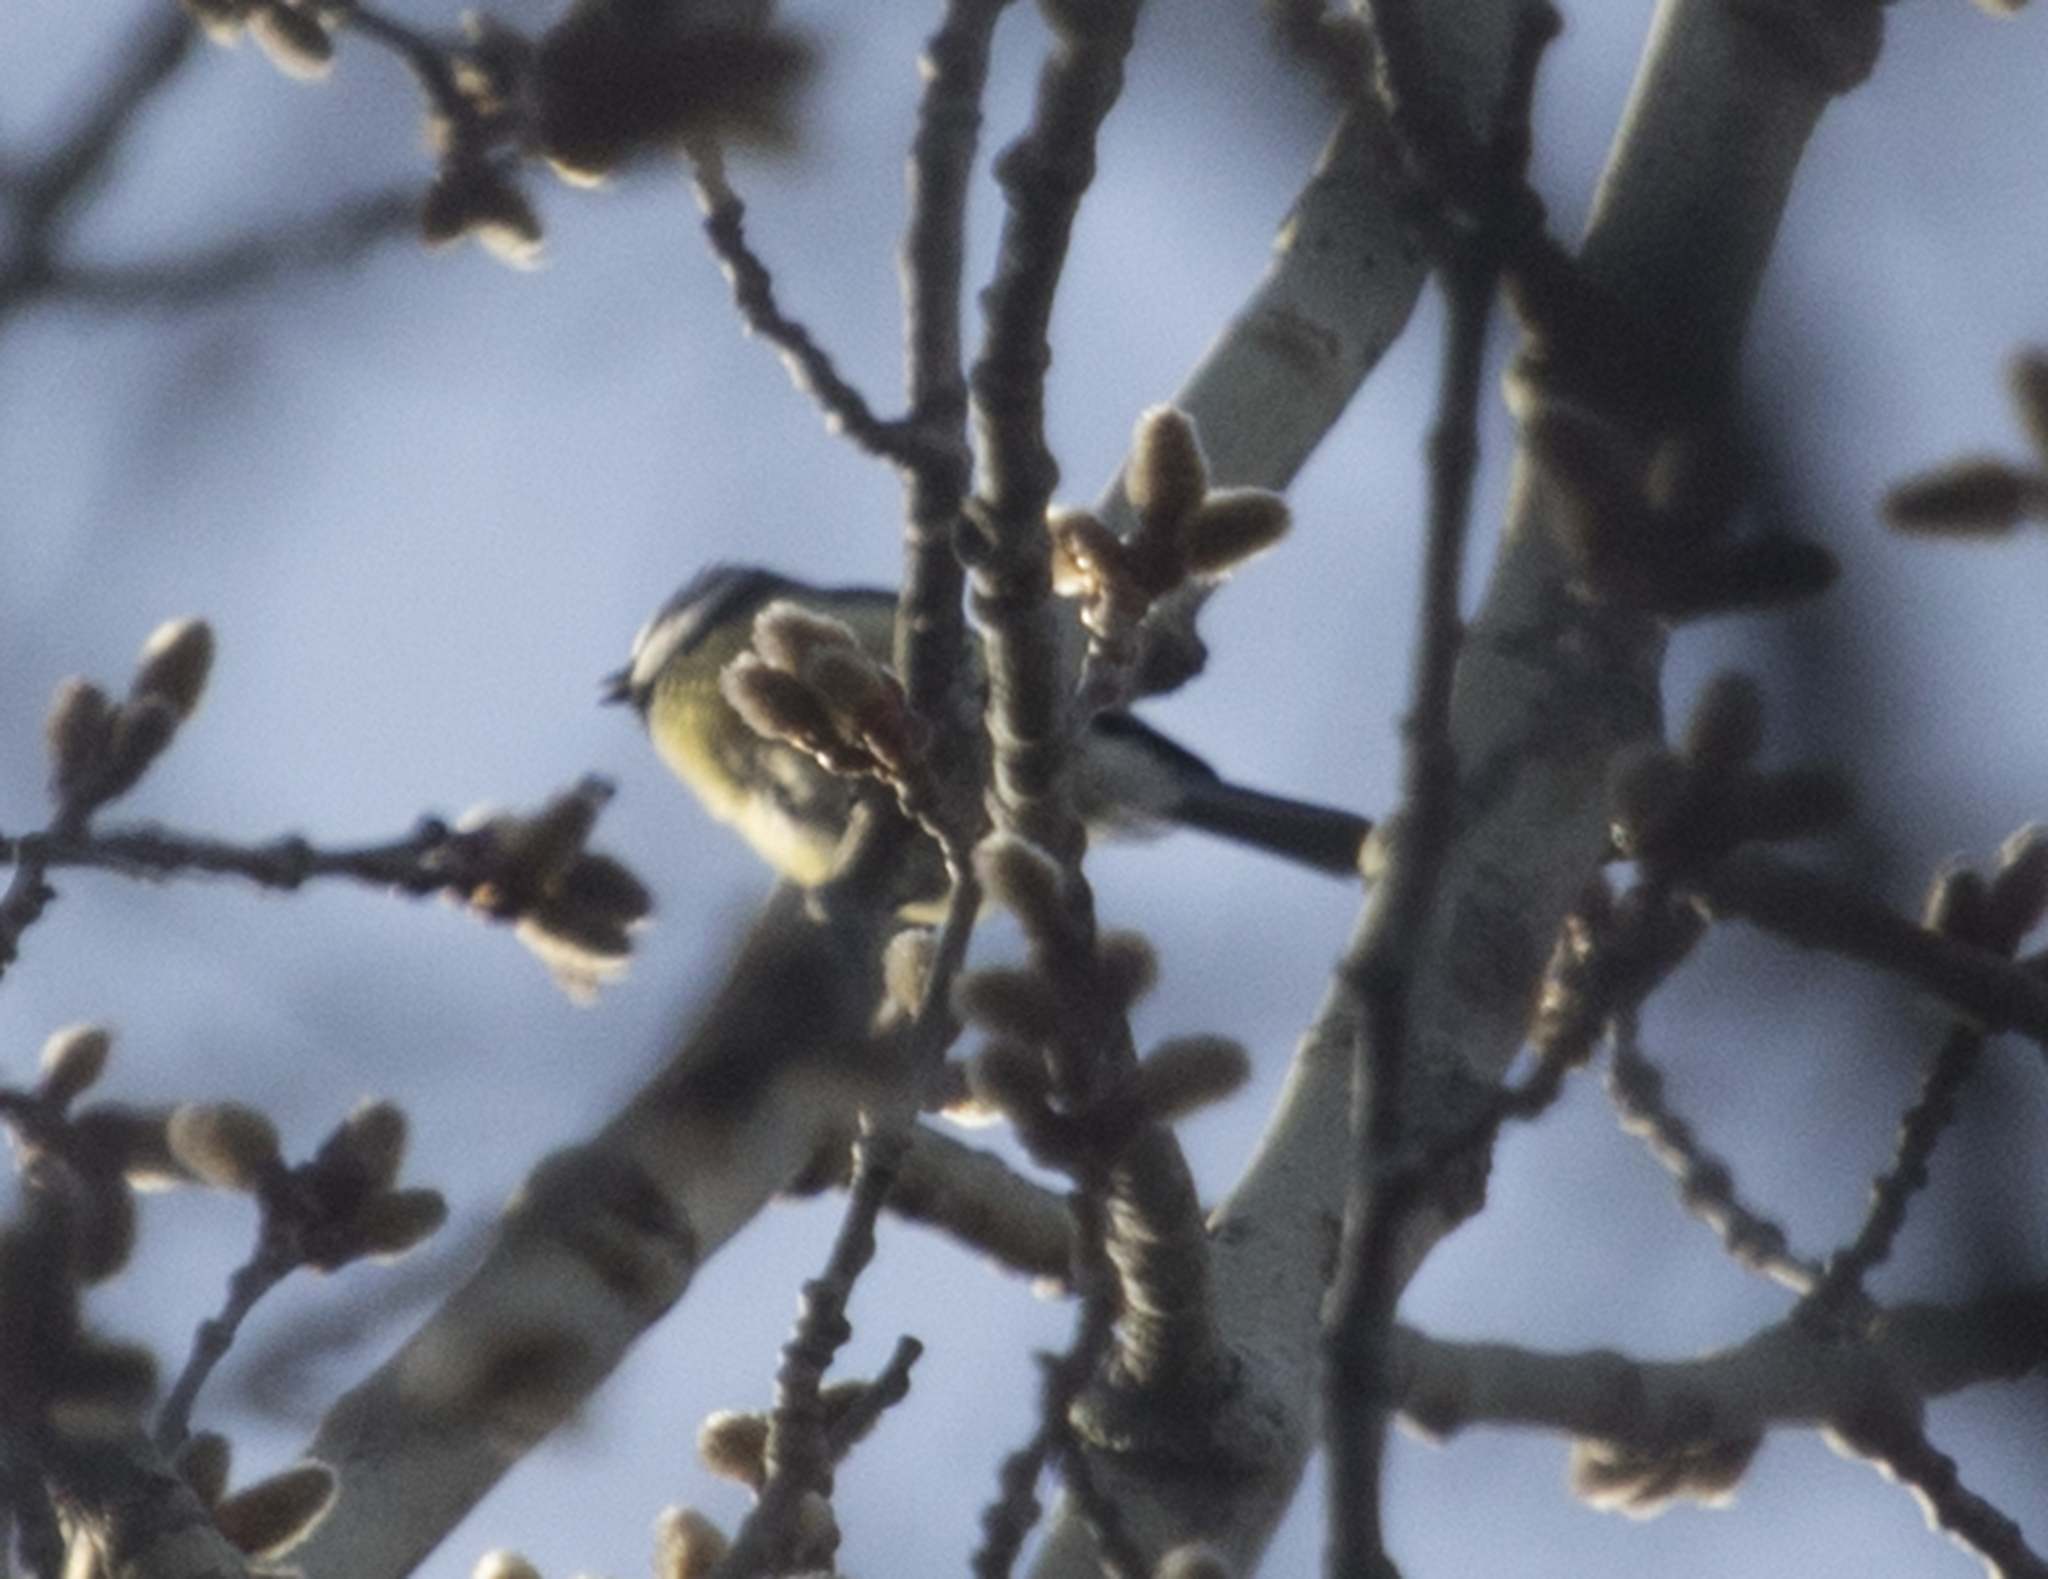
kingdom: Animalia
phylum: Chordata
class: Aves
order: Passeriformes
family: Paridae
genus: Cyanistes
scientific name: Cyanistes caeruleus
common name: Eurasian blue tit
